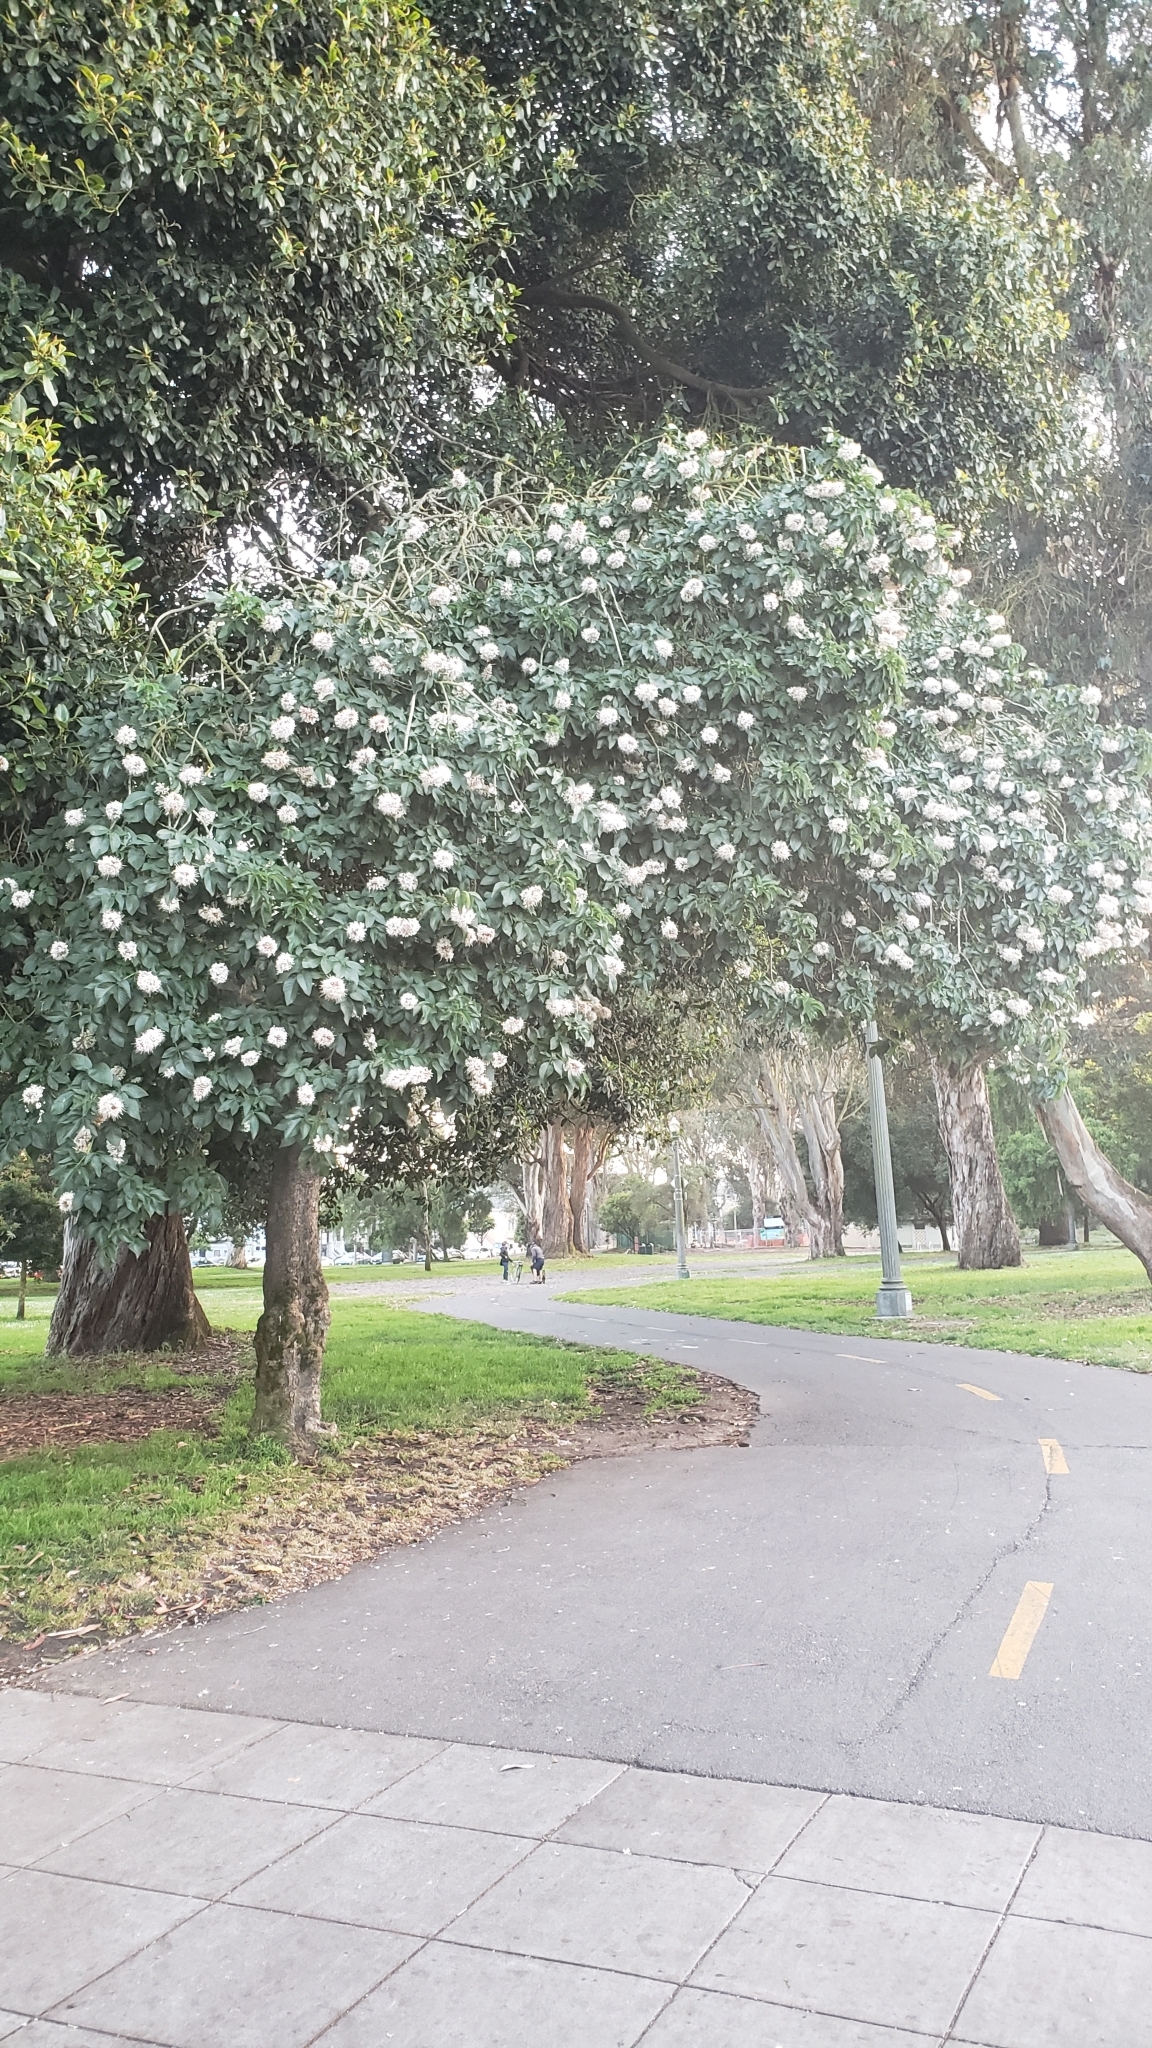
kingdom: Plantae
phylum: Tracheophyta
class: Magnoliopsida
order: Sapindales
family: Sapindaceae
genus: Aesculus
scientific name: Aesculus californica
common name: California buckeye
